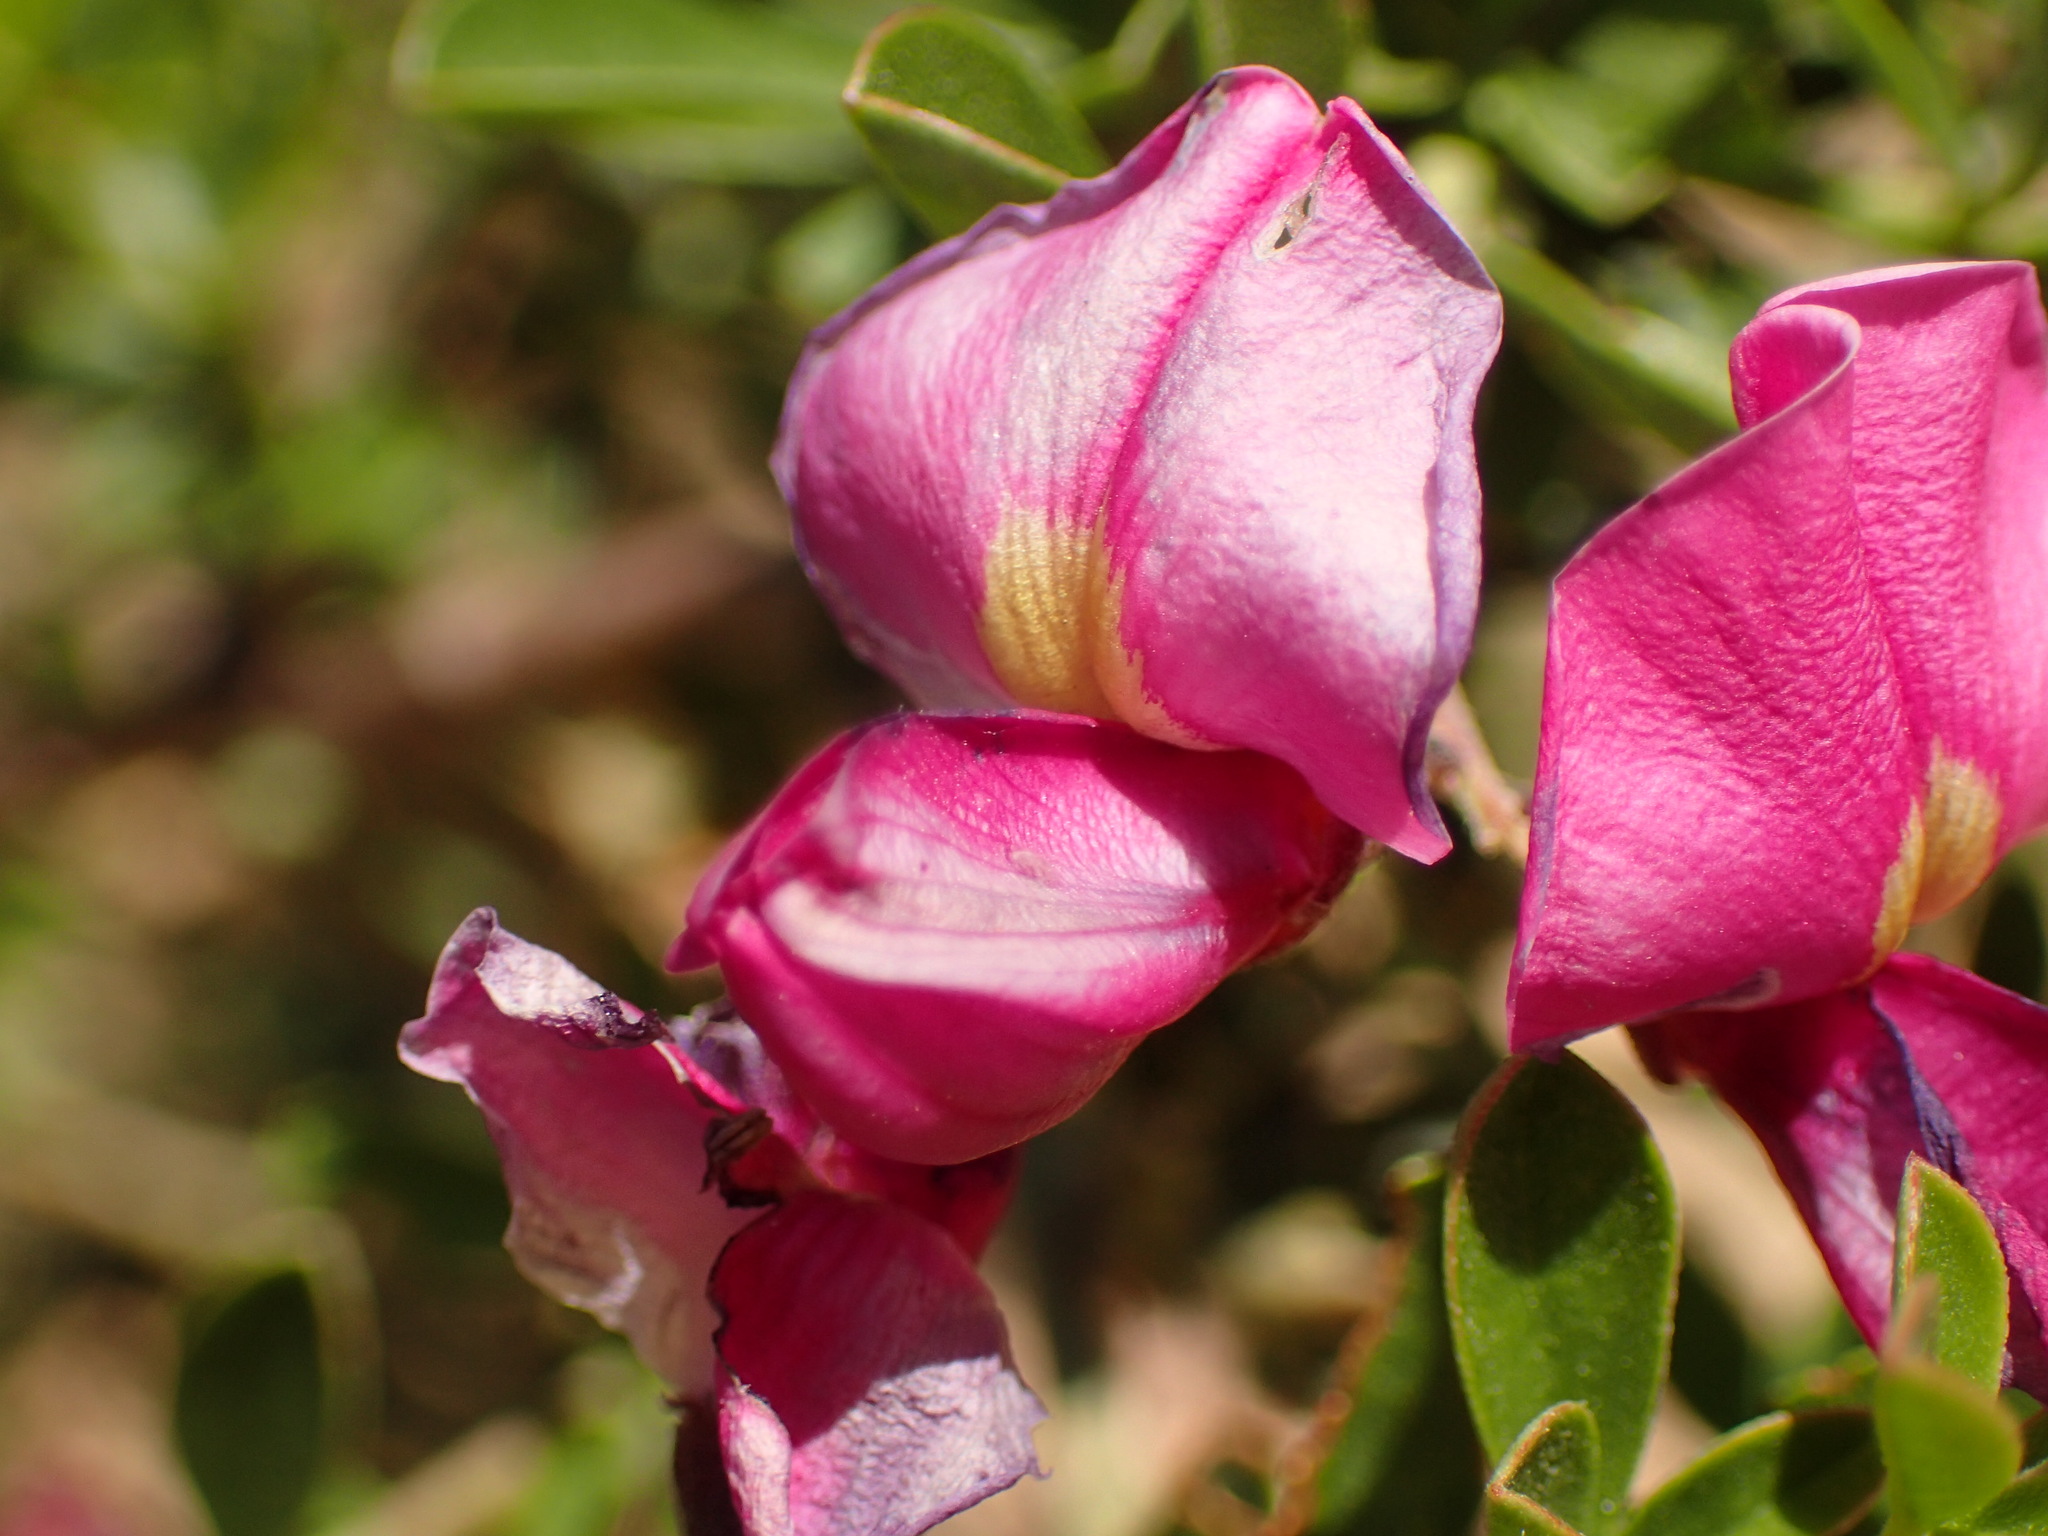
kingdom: Plantae
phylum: Tracheophyta
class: Magnoliopsida
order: Fabales
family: Fabaceae
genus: Pickeringia
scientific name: Pickeringia montana
